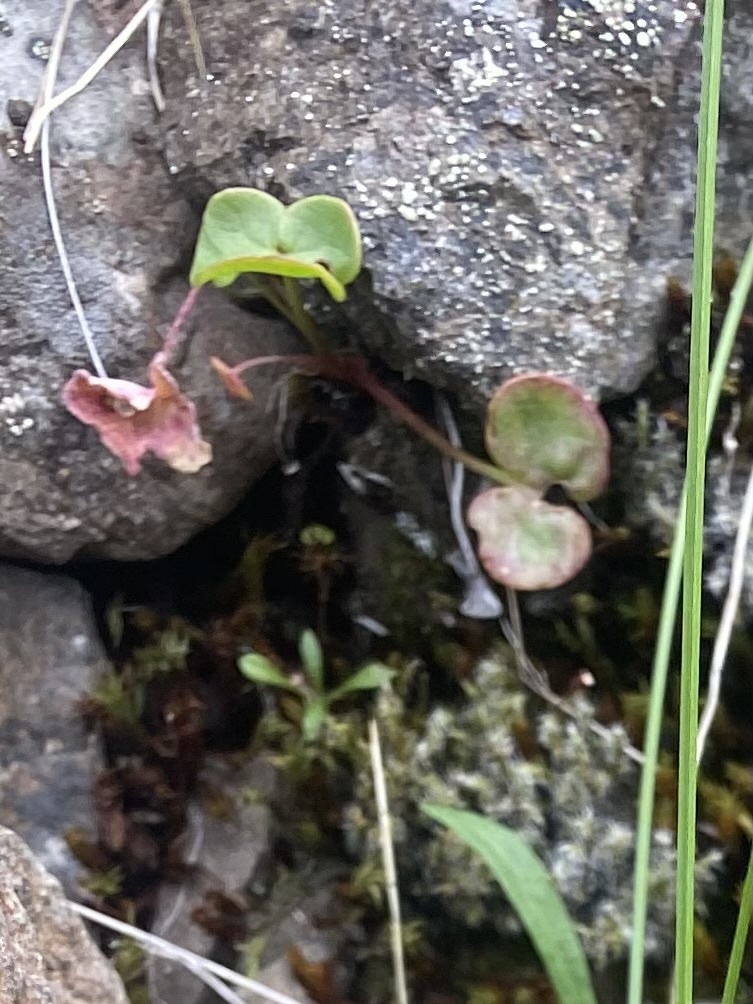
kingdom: Plantae
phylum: Tracheophyta
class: Magnoliopsida
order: Caryophyllales
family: Polygonaceae
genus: Oxyria
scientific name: Oxyria digyna
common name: Alpine mountain-sorrel
